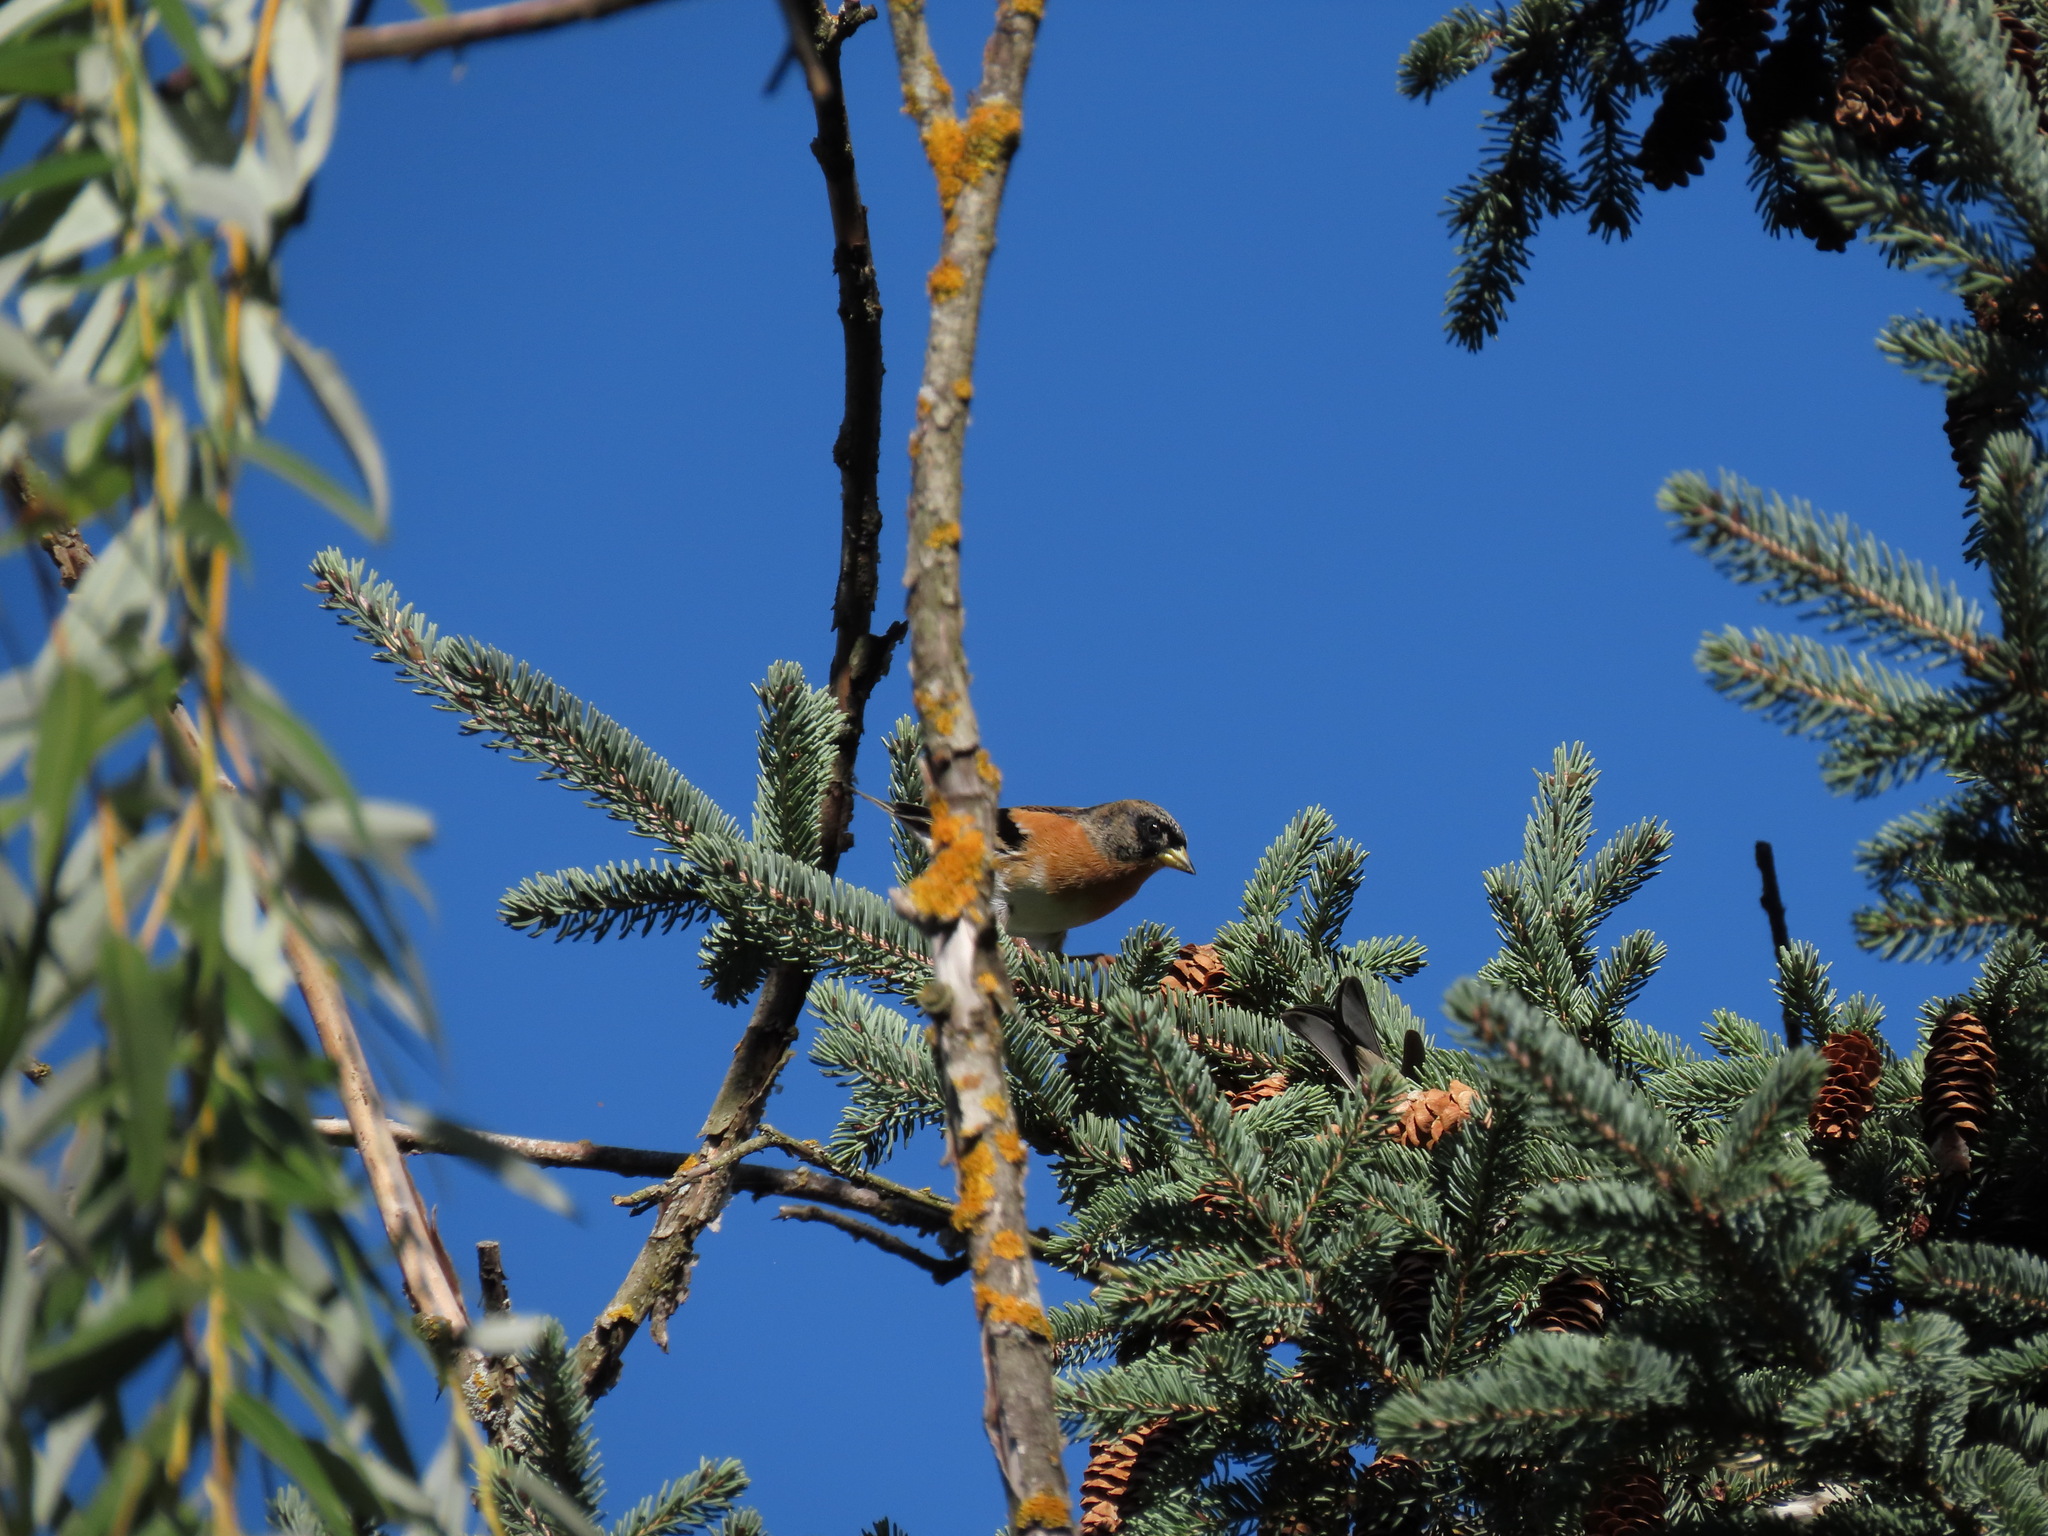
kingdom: Animalia
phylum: Chordata
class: Aves
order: Passeriformes
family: Fringillidae
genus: Fringilla
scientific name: Fringilla montifringilla
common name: Brambling
